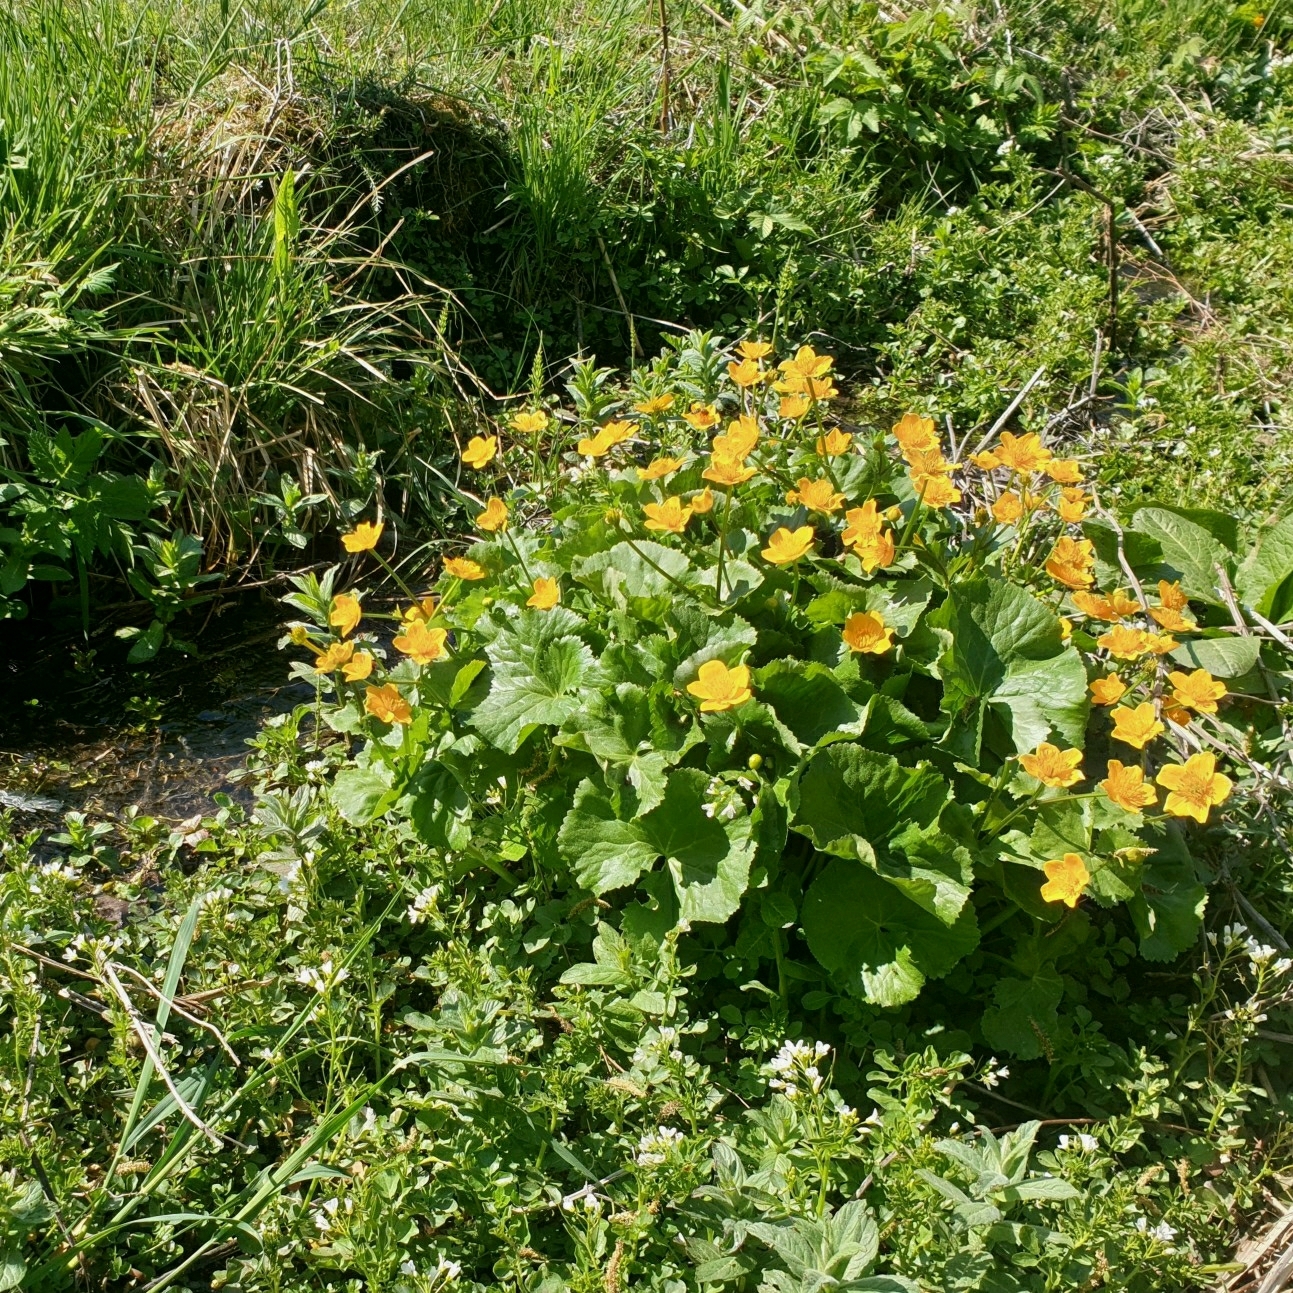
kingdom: Plantae
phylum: Tracheophyta
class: Magnoliopsida
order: Ranunculales
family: Ranunculaceae
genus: Caltha
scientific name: Caltha palustris
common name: Marsh marigold
